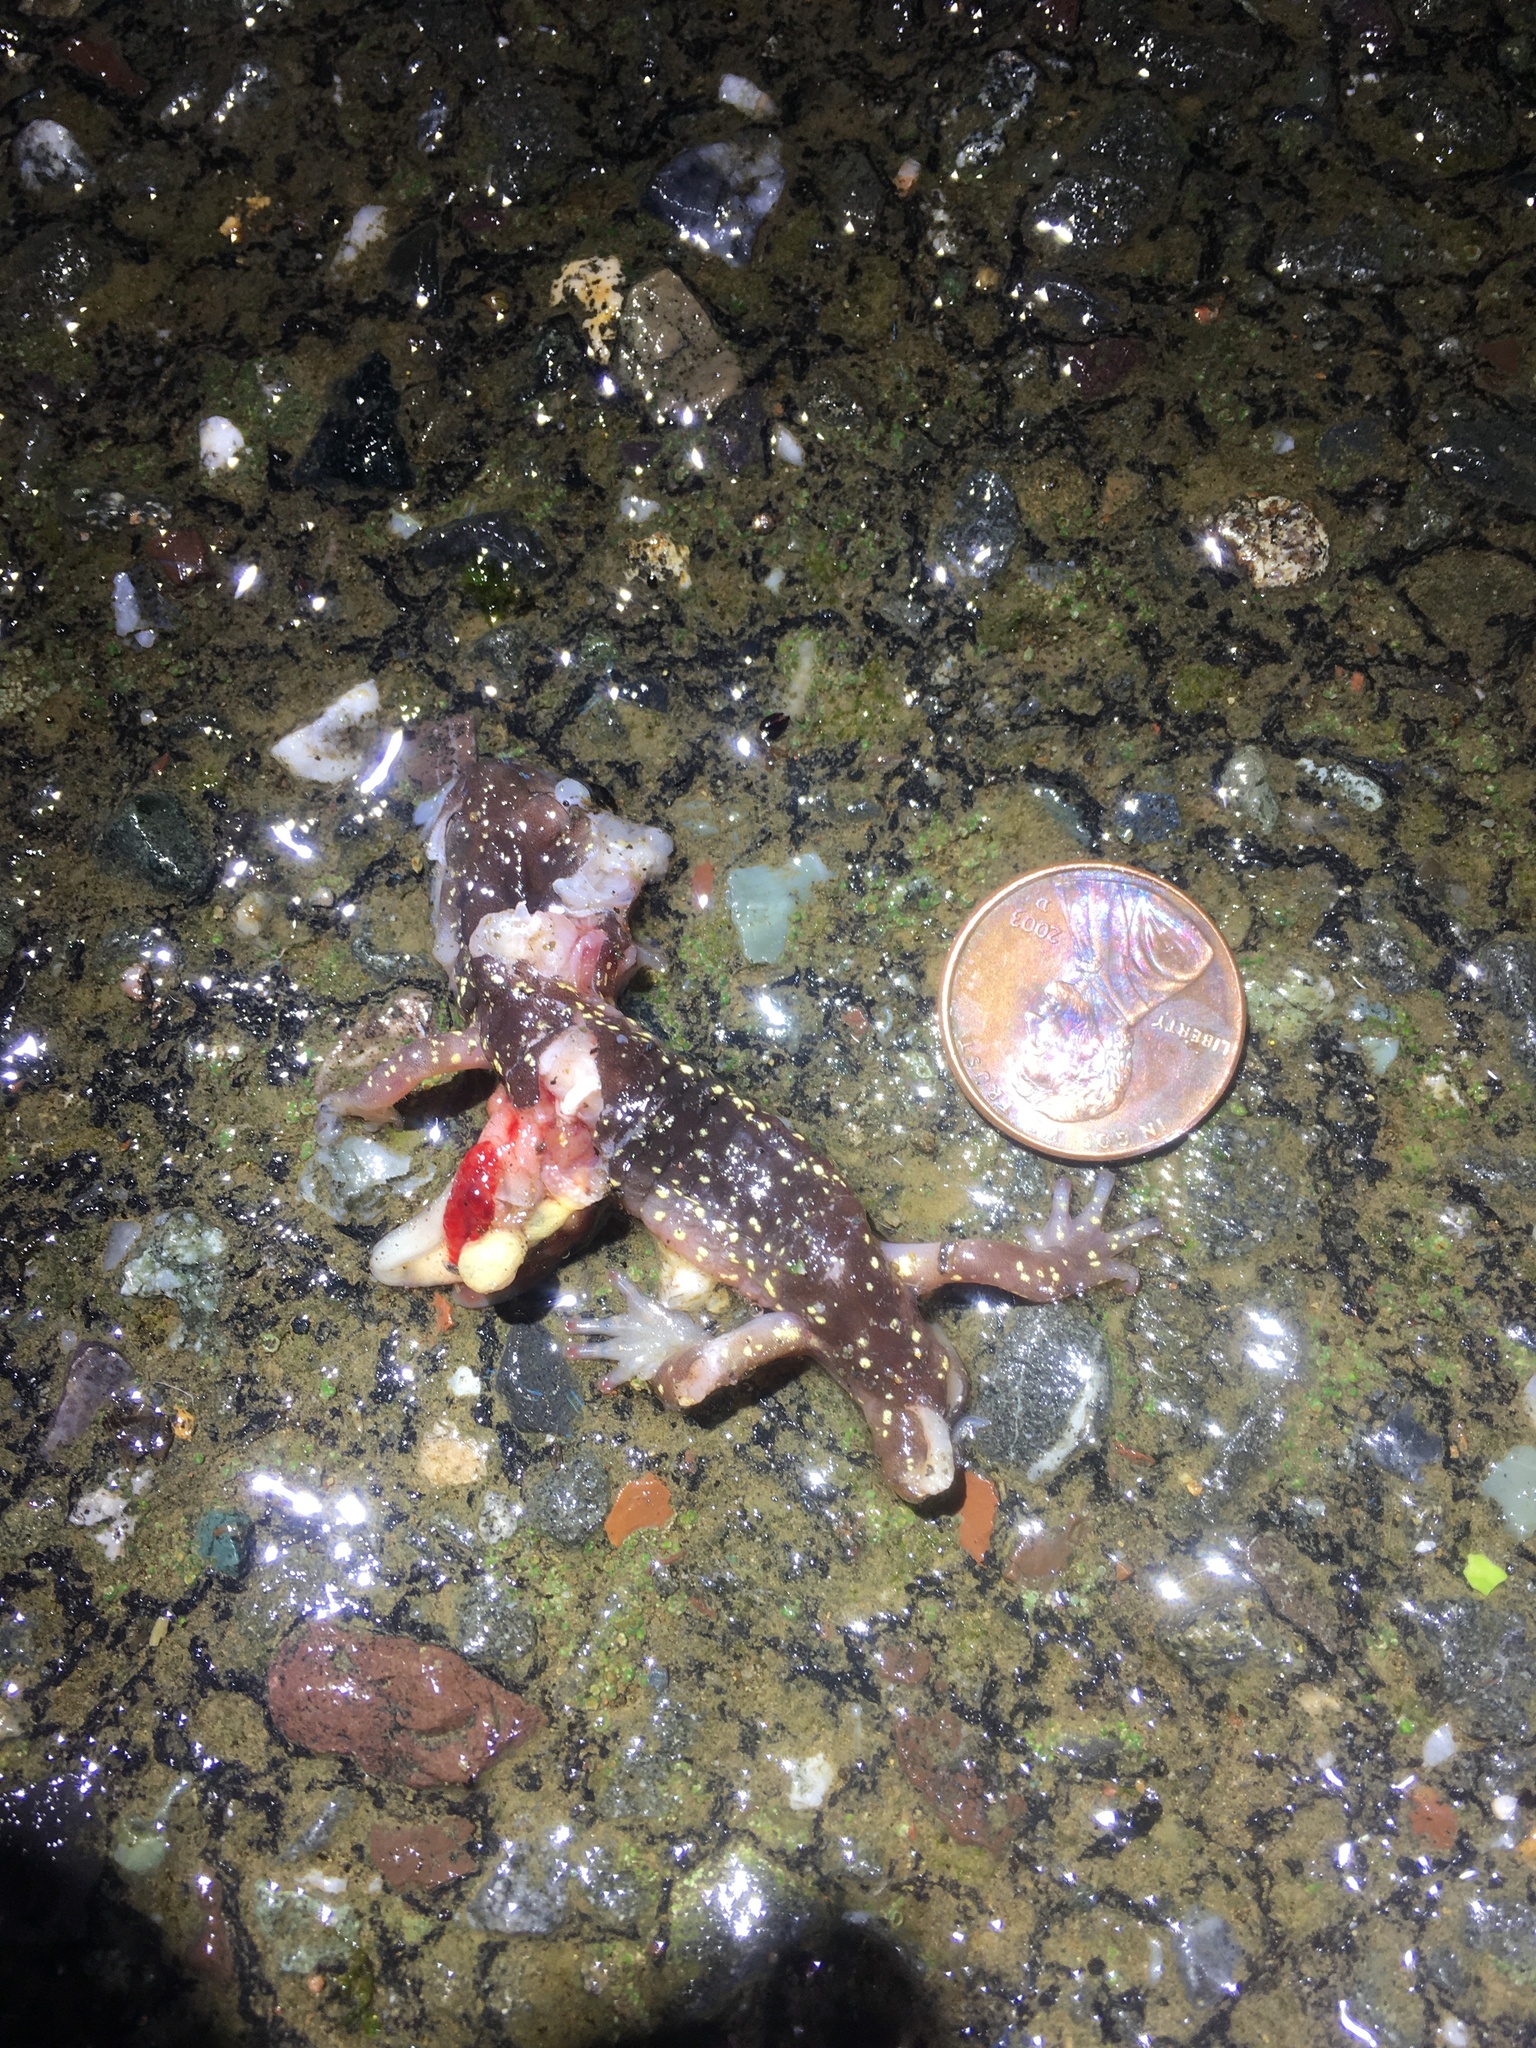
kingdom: Animalia
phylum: Chordata
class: Amphibia
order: Caudata
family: Plethodontidae
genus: Aneides
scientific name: Aneides lugubris
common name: Arboreal salamander
